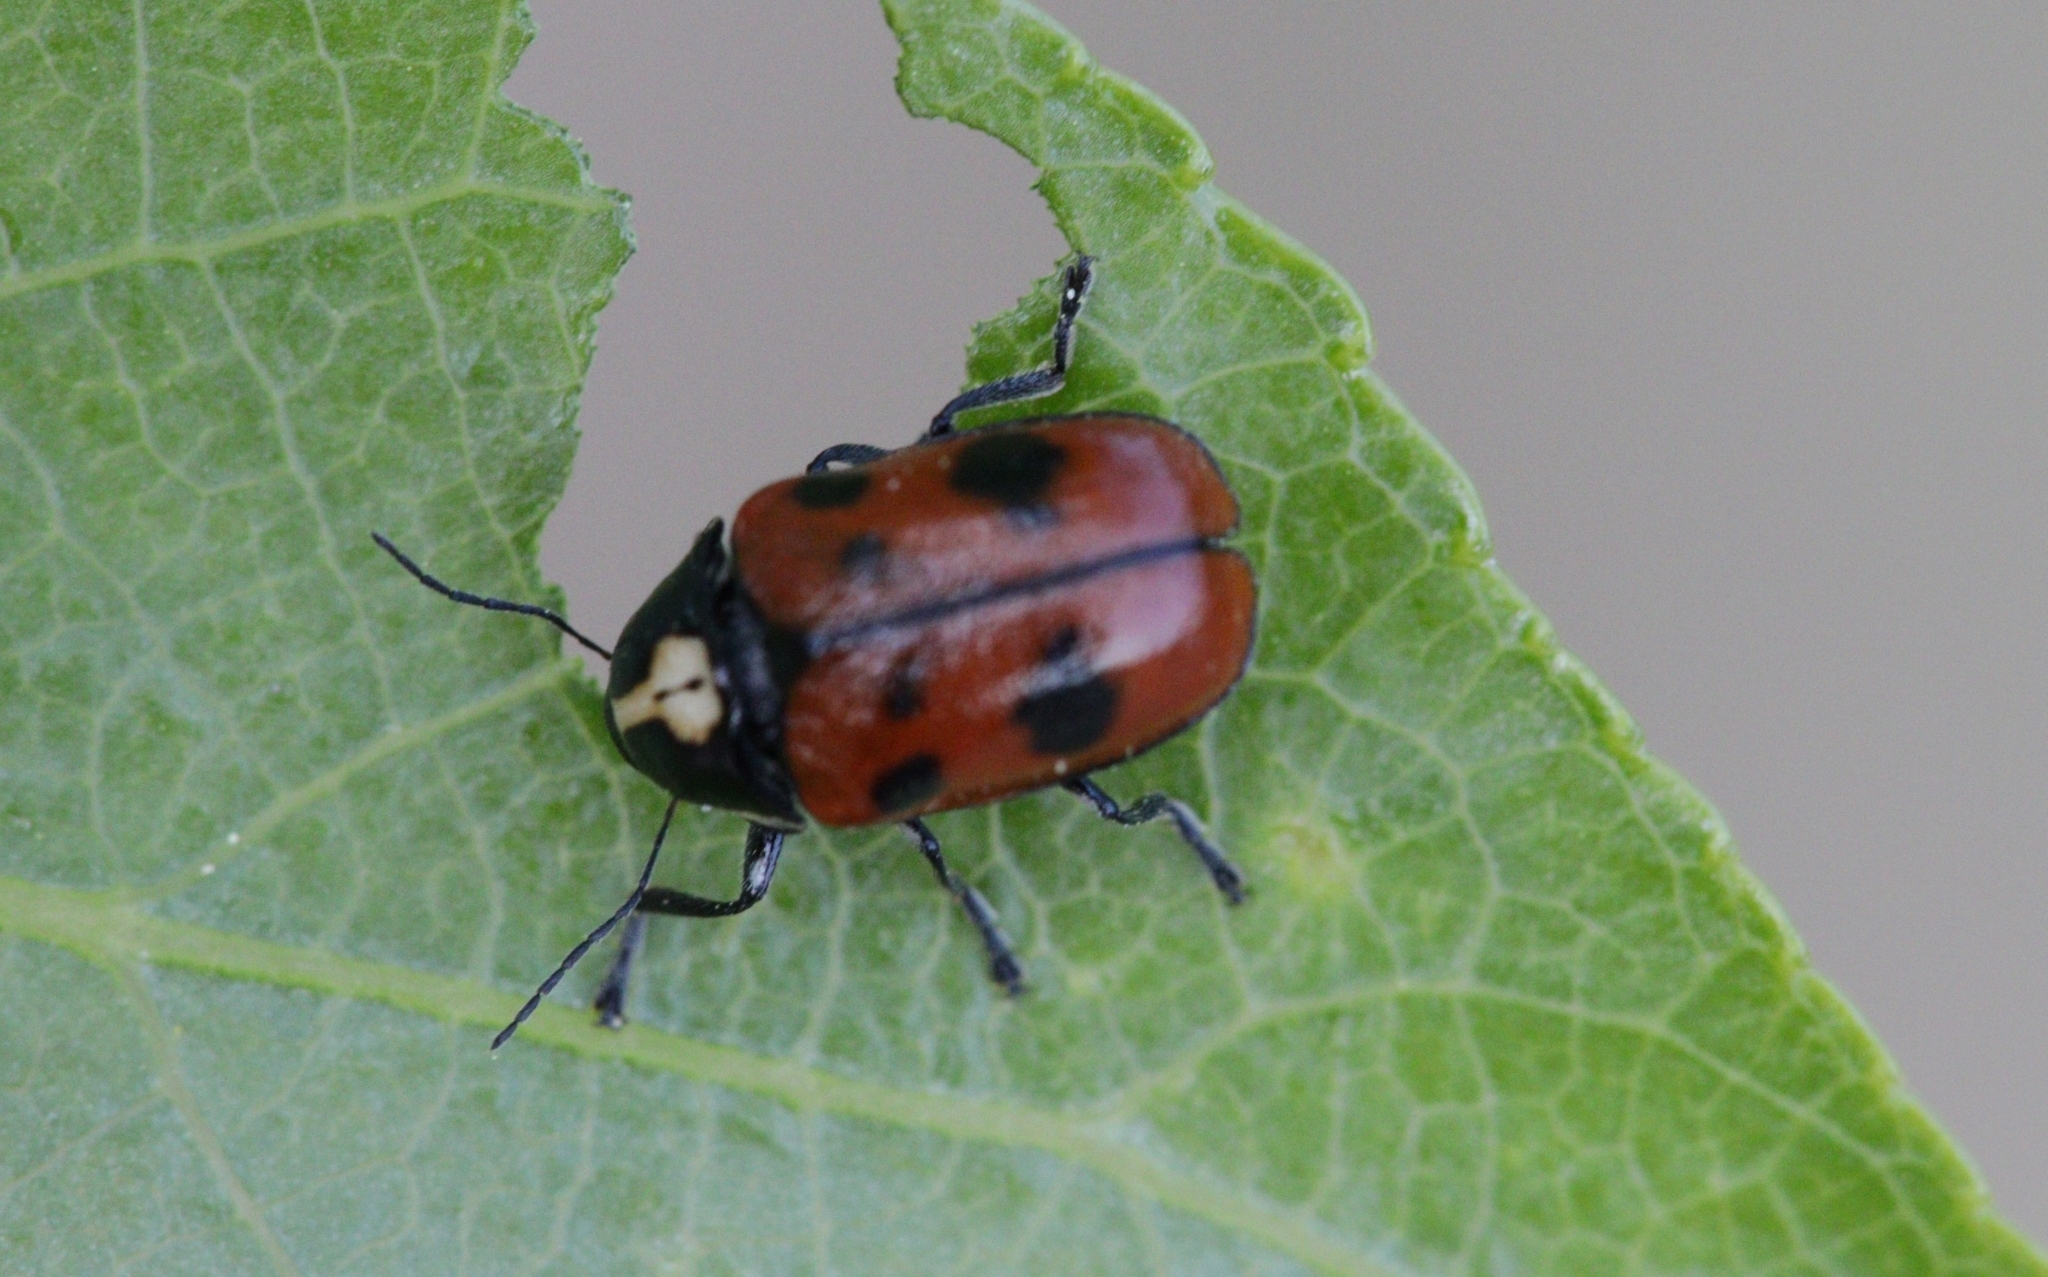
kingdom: Animalia
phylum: Arthropoda
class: Insecta
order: Coleoptera
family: Chrysomelidae
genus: Cryptocephalus
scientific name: Cryptocephalus cordiger
